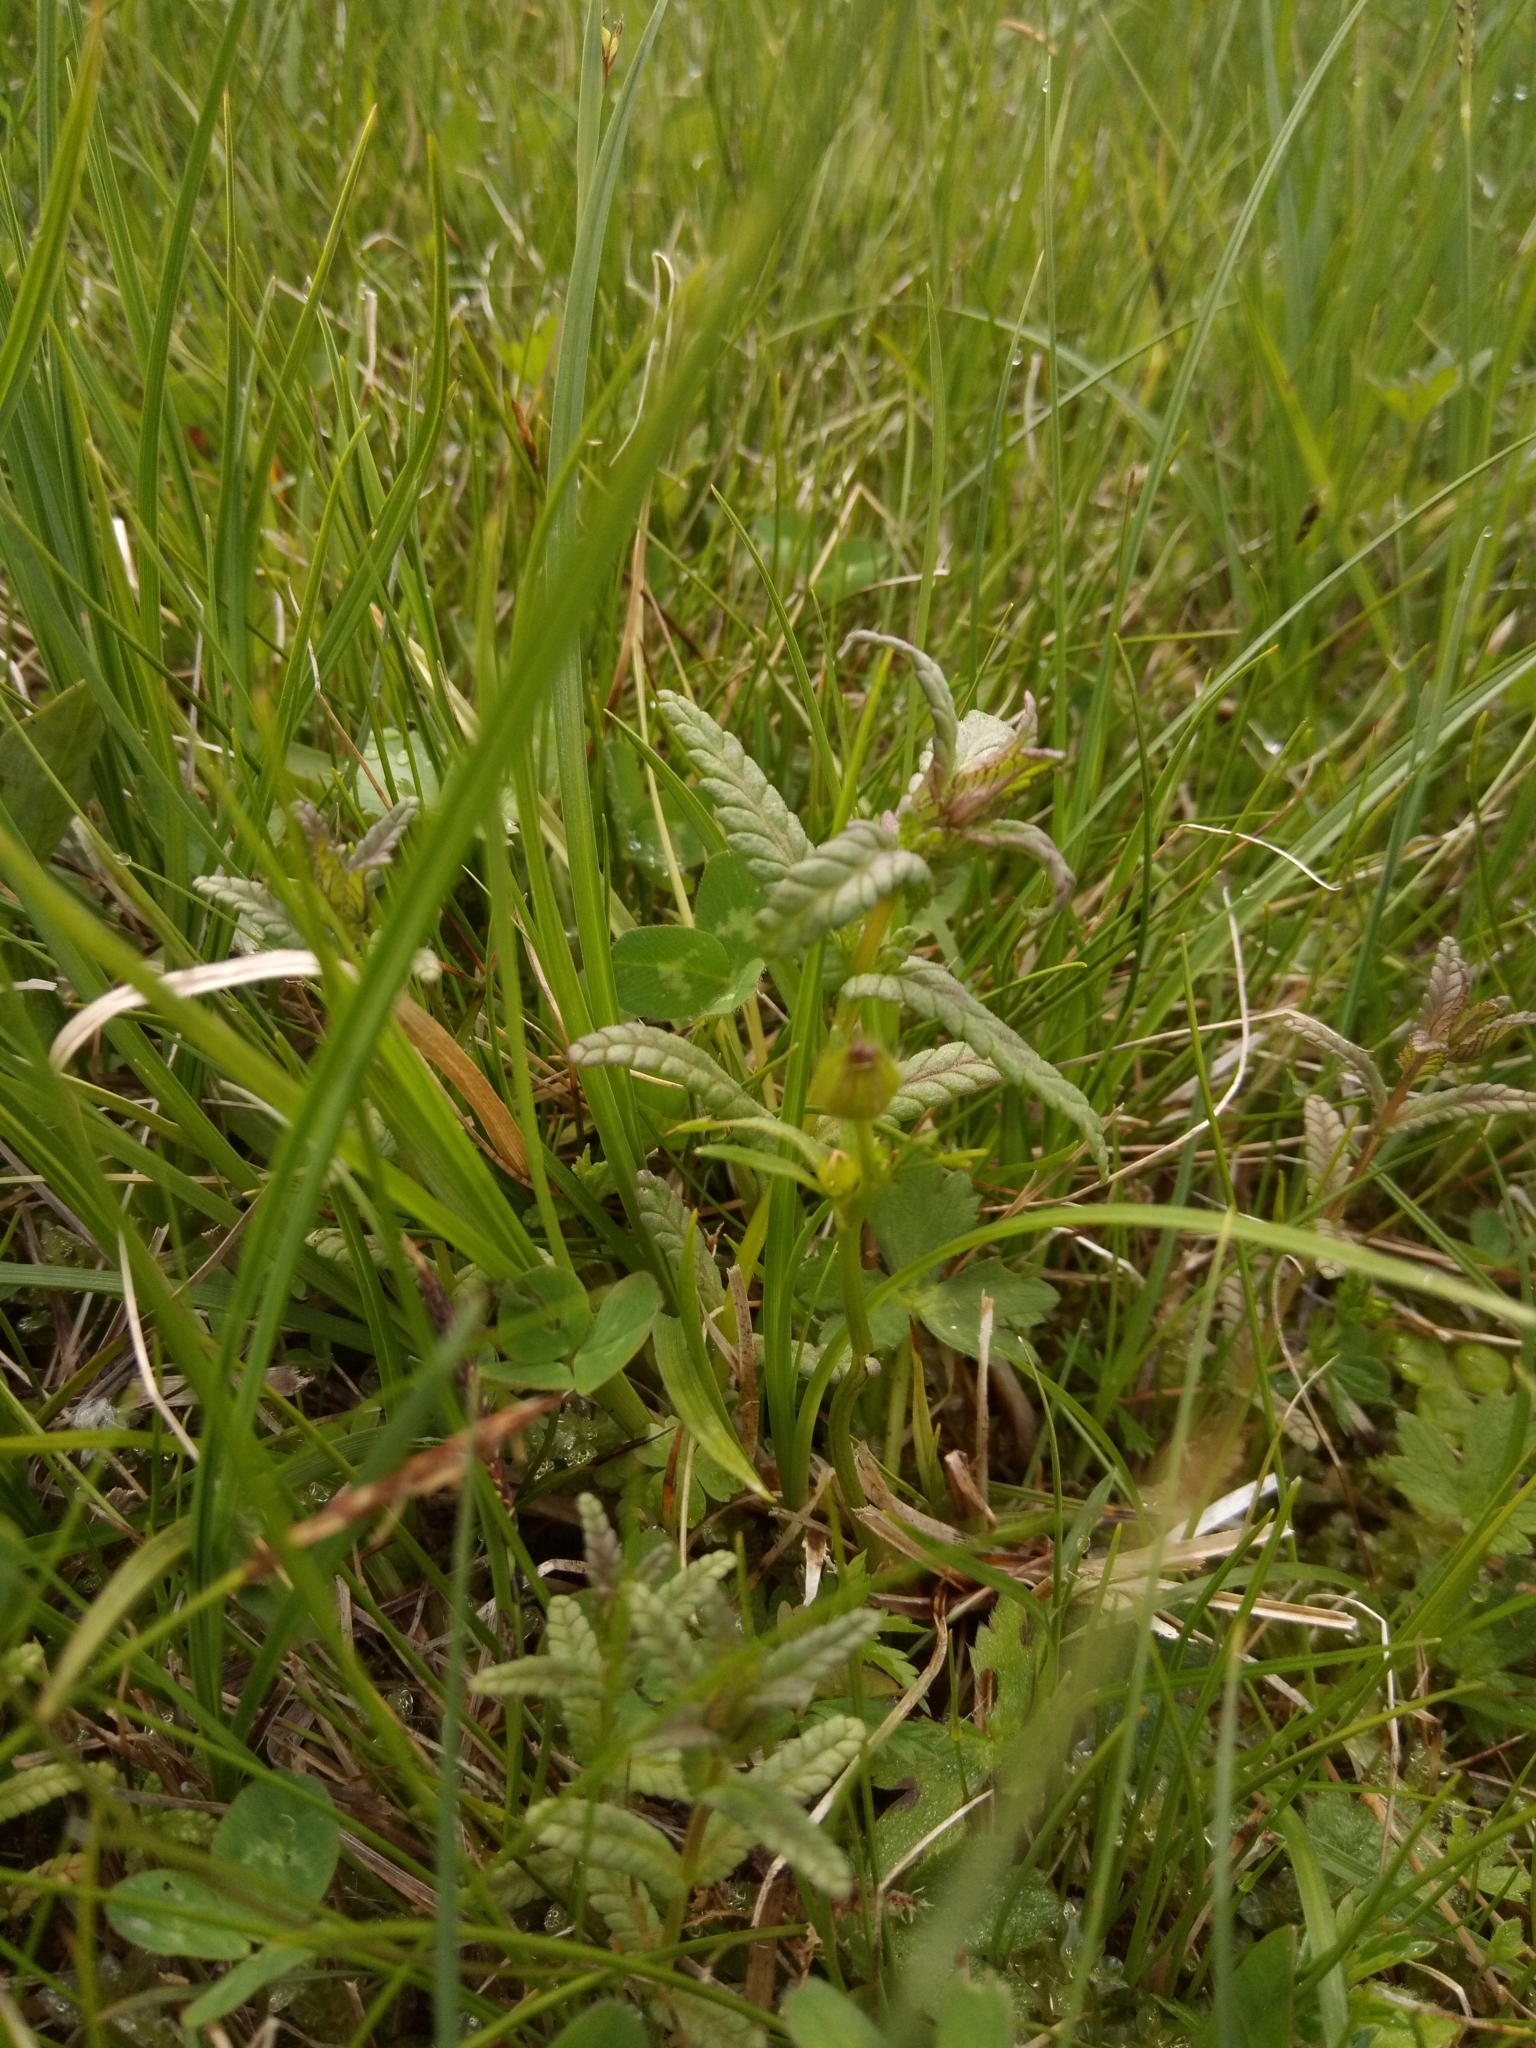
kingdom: Plantae
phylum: Tracheophyta
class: Magnoliopsida
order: Lamiales
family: Orobanchaceae
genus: Rhinanthus
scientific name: Rhinanthus minor
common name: Yellow-rattle
